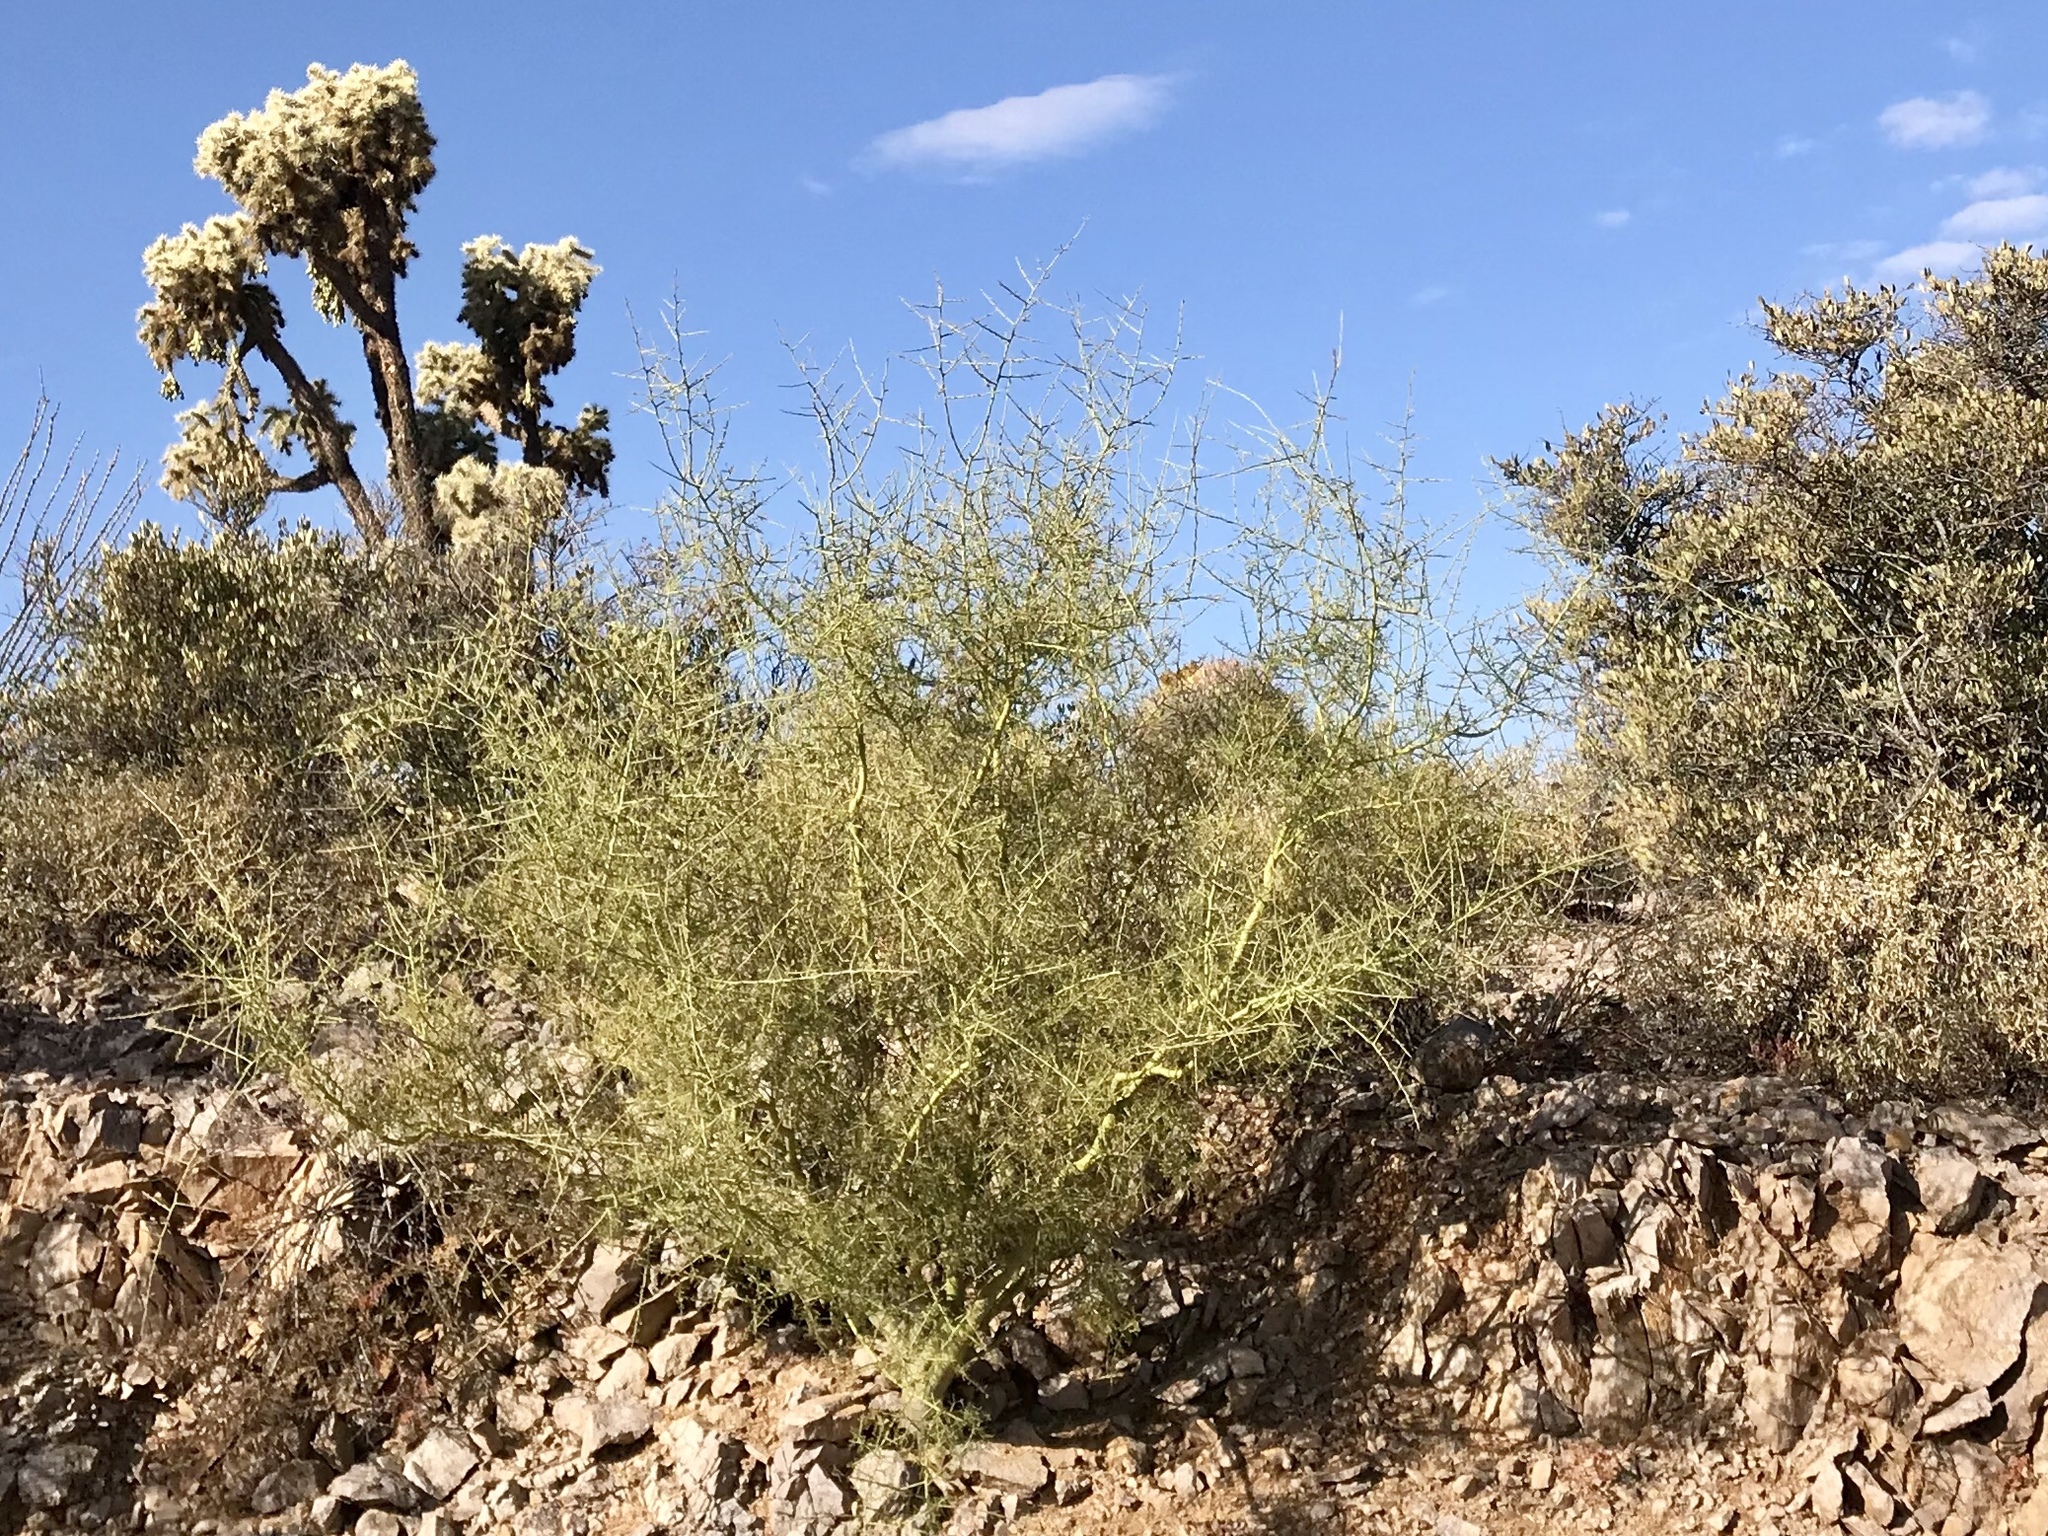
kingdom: Plantae
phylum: Tracheophyta
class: Magnoliopsida
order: Fabales
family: Fabaceae
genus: Parkinsonia
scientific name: Parkinsonia microphylla
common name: Yellow paloverde
